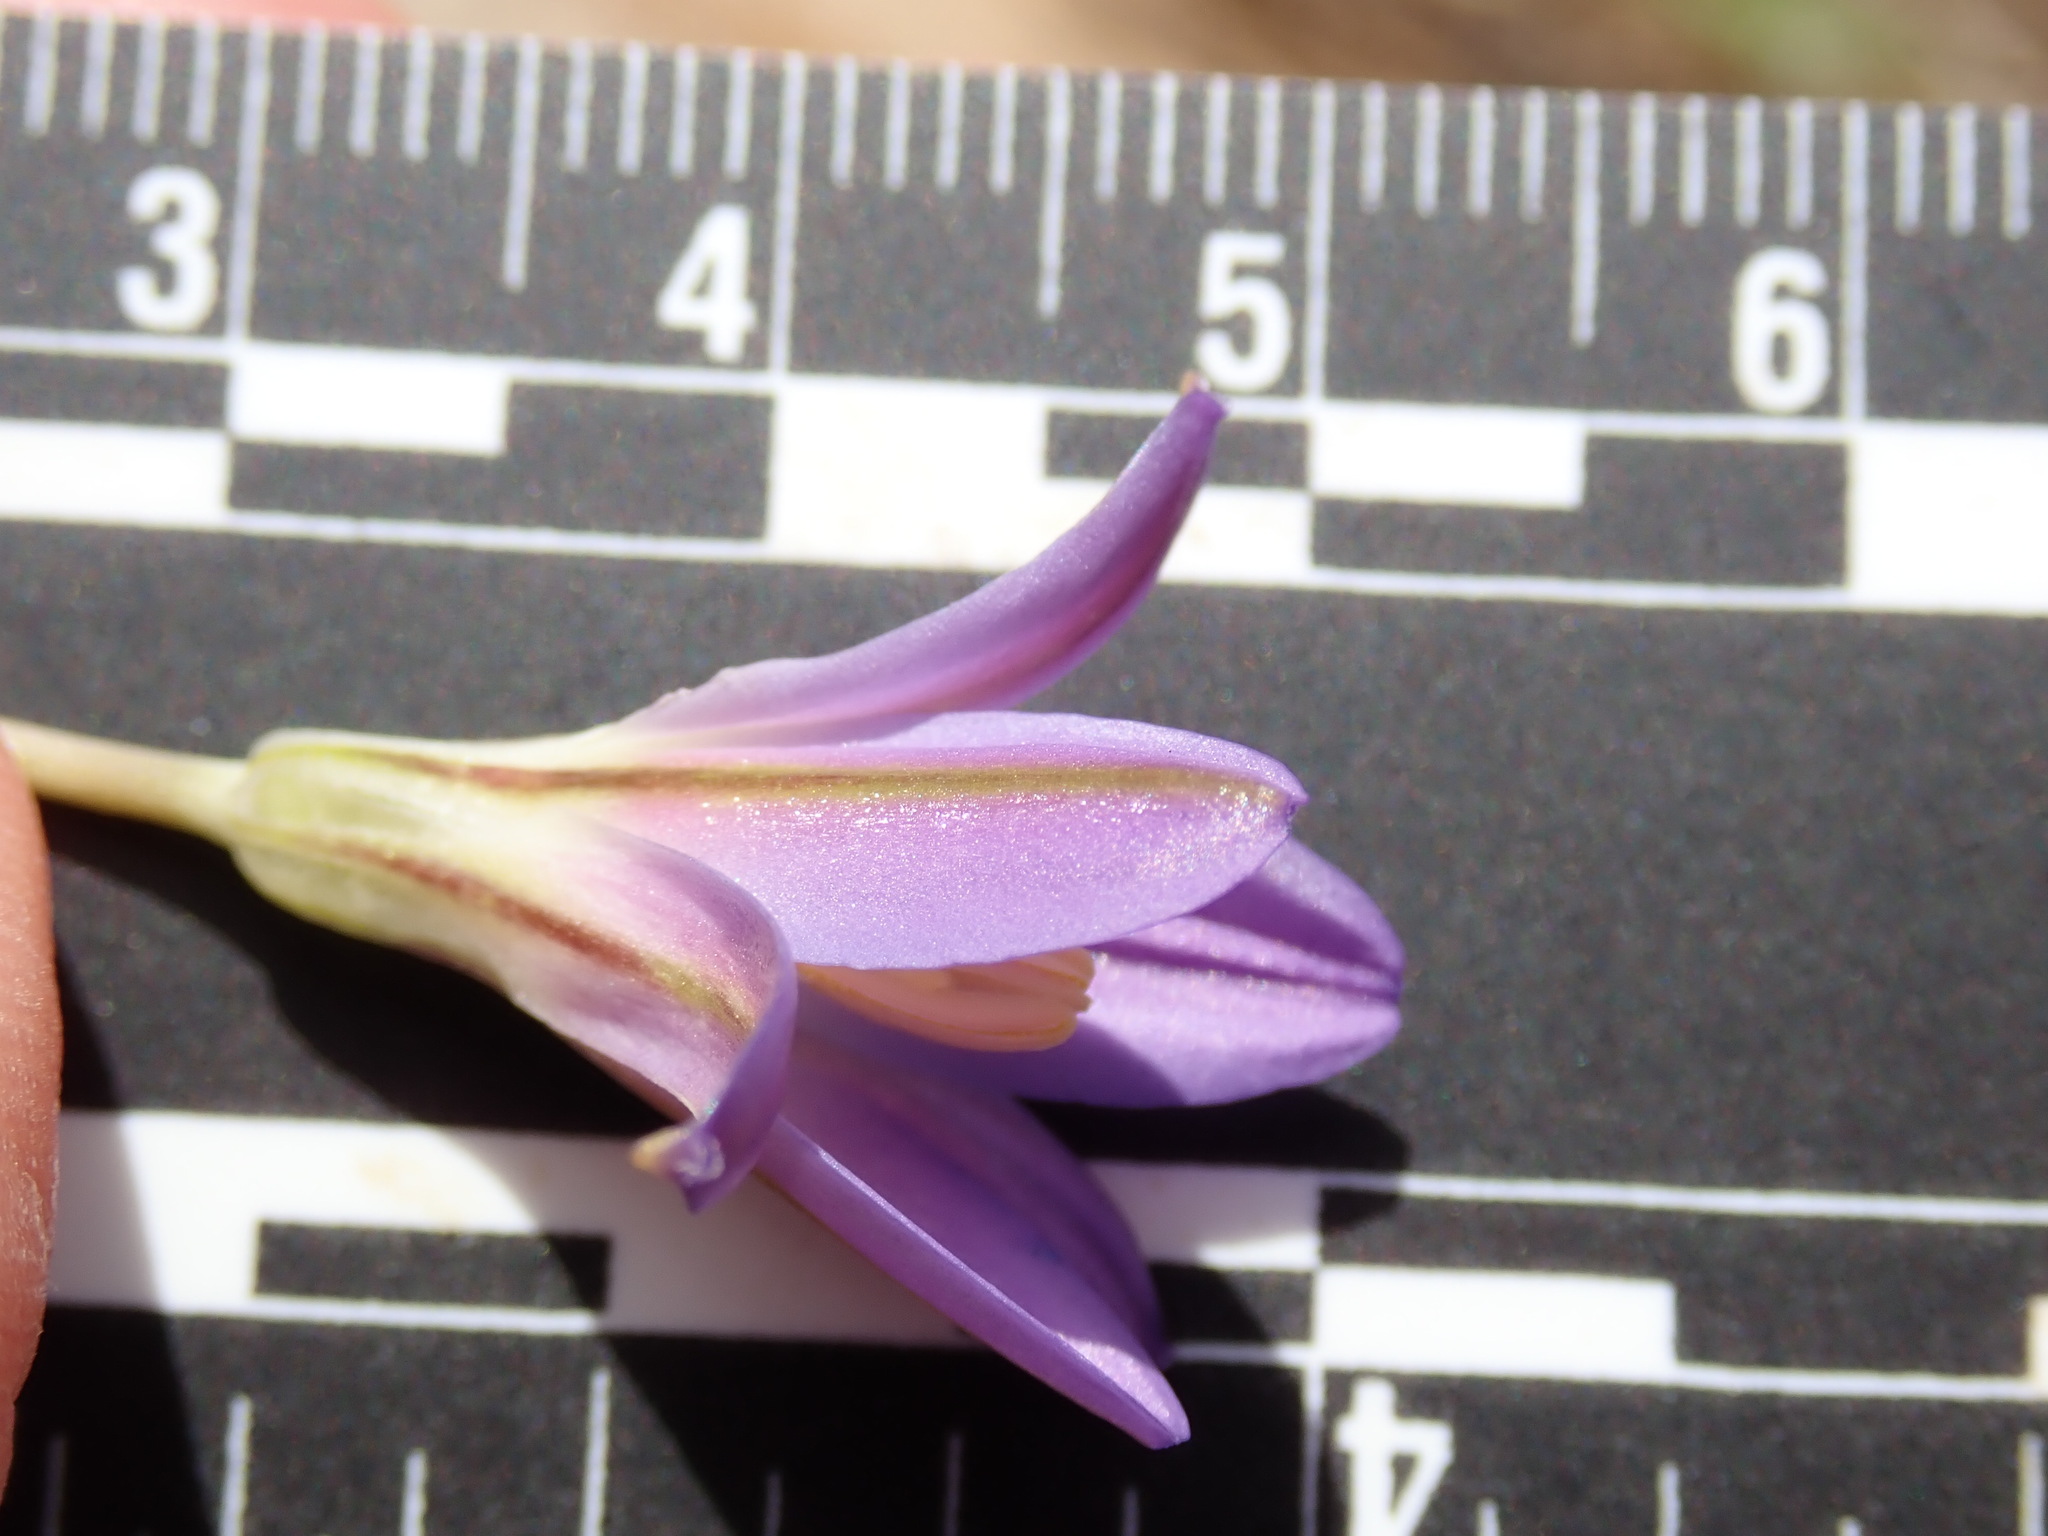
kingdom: Plantae
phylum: Tracheophyta
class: Liliopsida
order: Asparagales
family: Asparagaceae
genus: Brodiaea
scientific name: Brodiaea orcuttii
